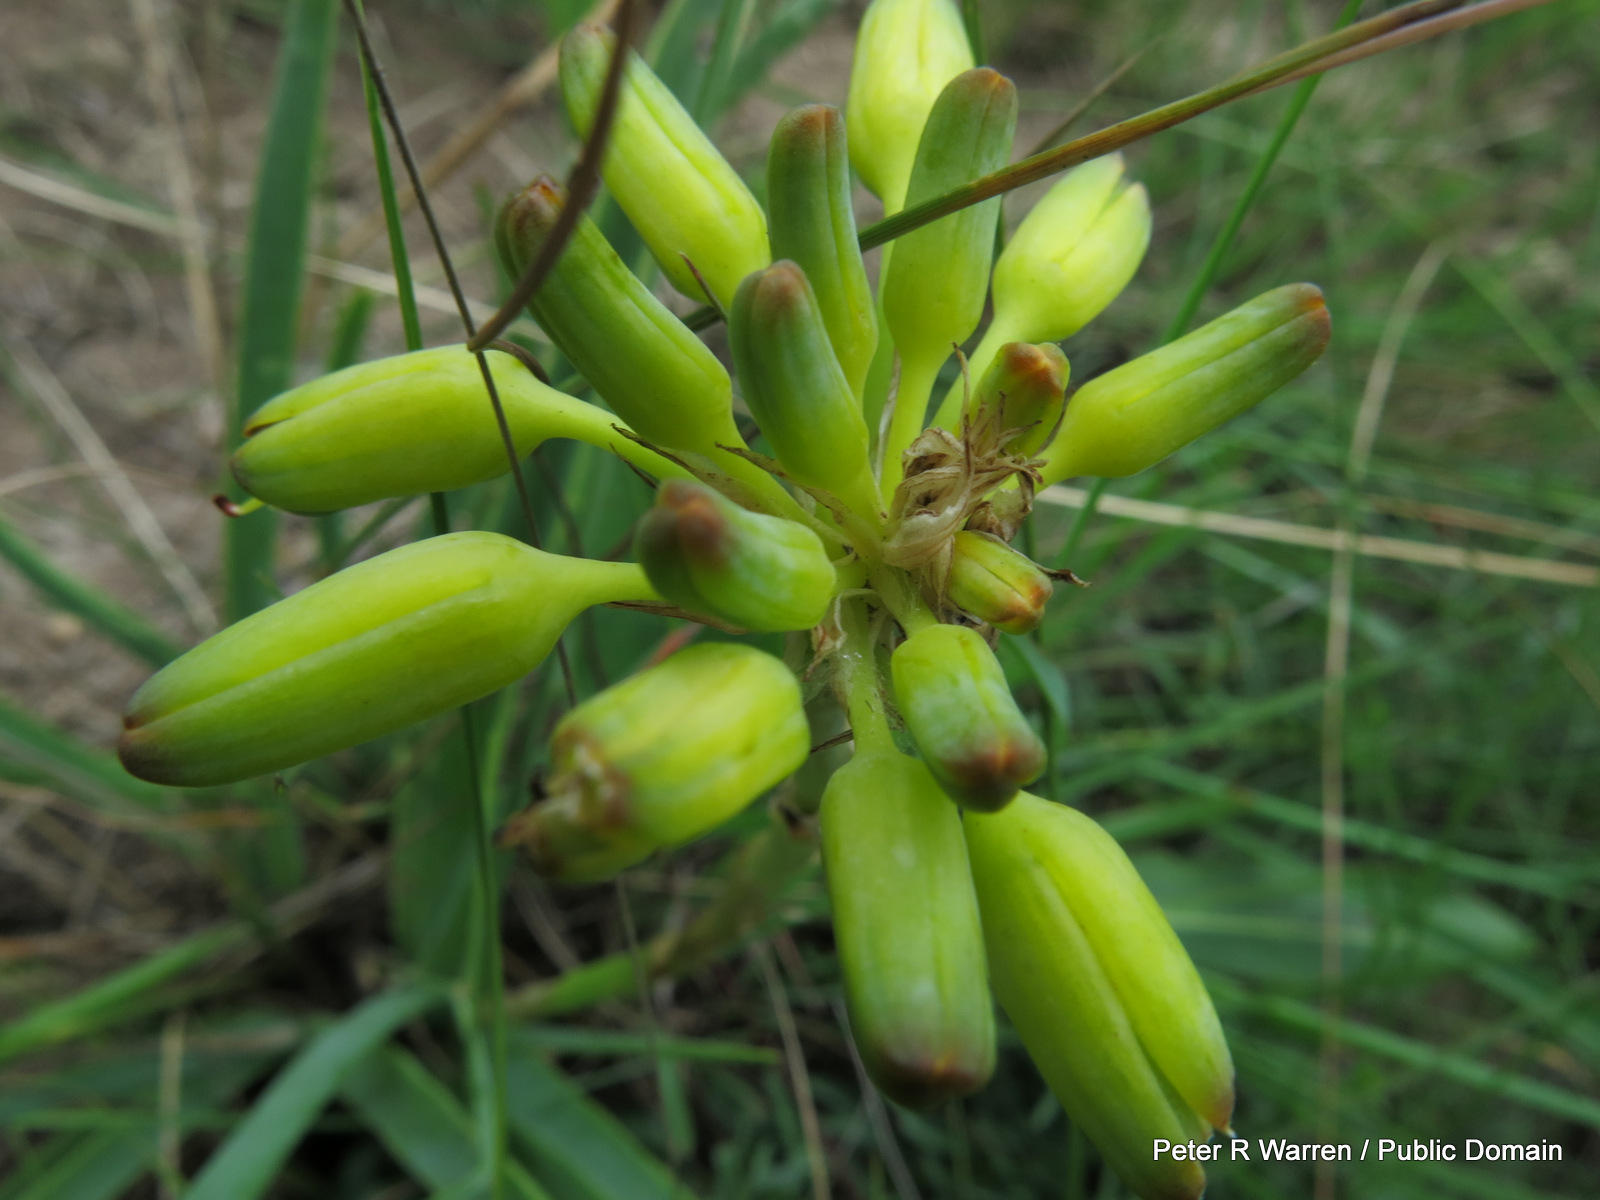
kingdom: Plantae
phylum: Tracheophyta
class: Liliopsida
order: Asparagales
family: Asphodelaceae
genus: Aloe
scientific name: Aloe linearifolia
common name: Dwarf yellow grass aloe
